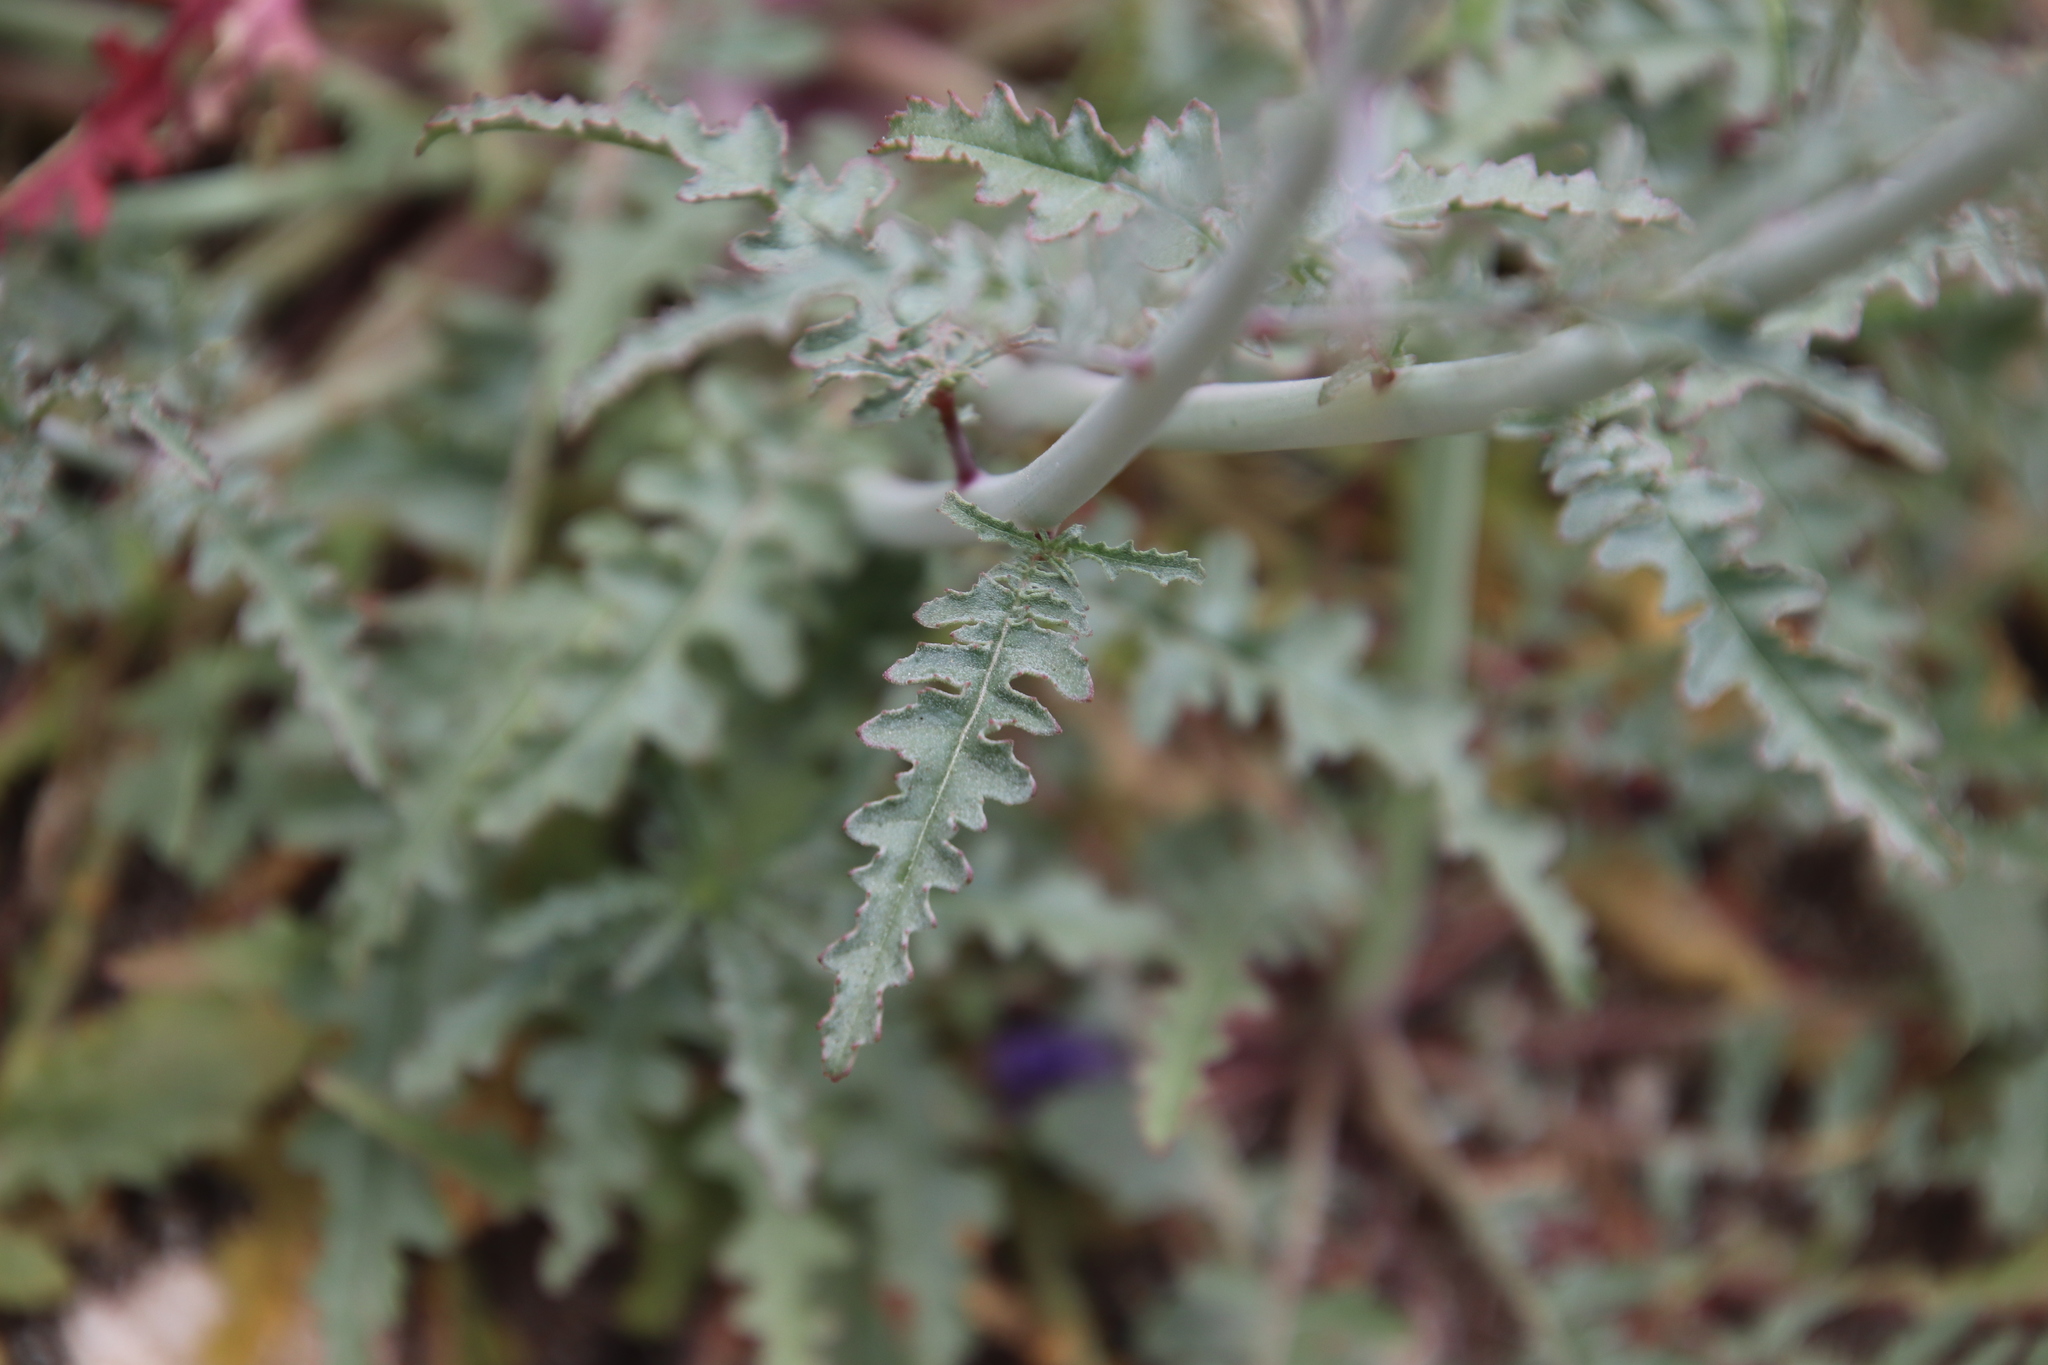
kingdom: Plantae
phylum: Tracheophyta
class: Magnoliopsida
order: Myrtales
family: Onagraceae
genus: Eulobus
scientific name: Eulobus californicus
